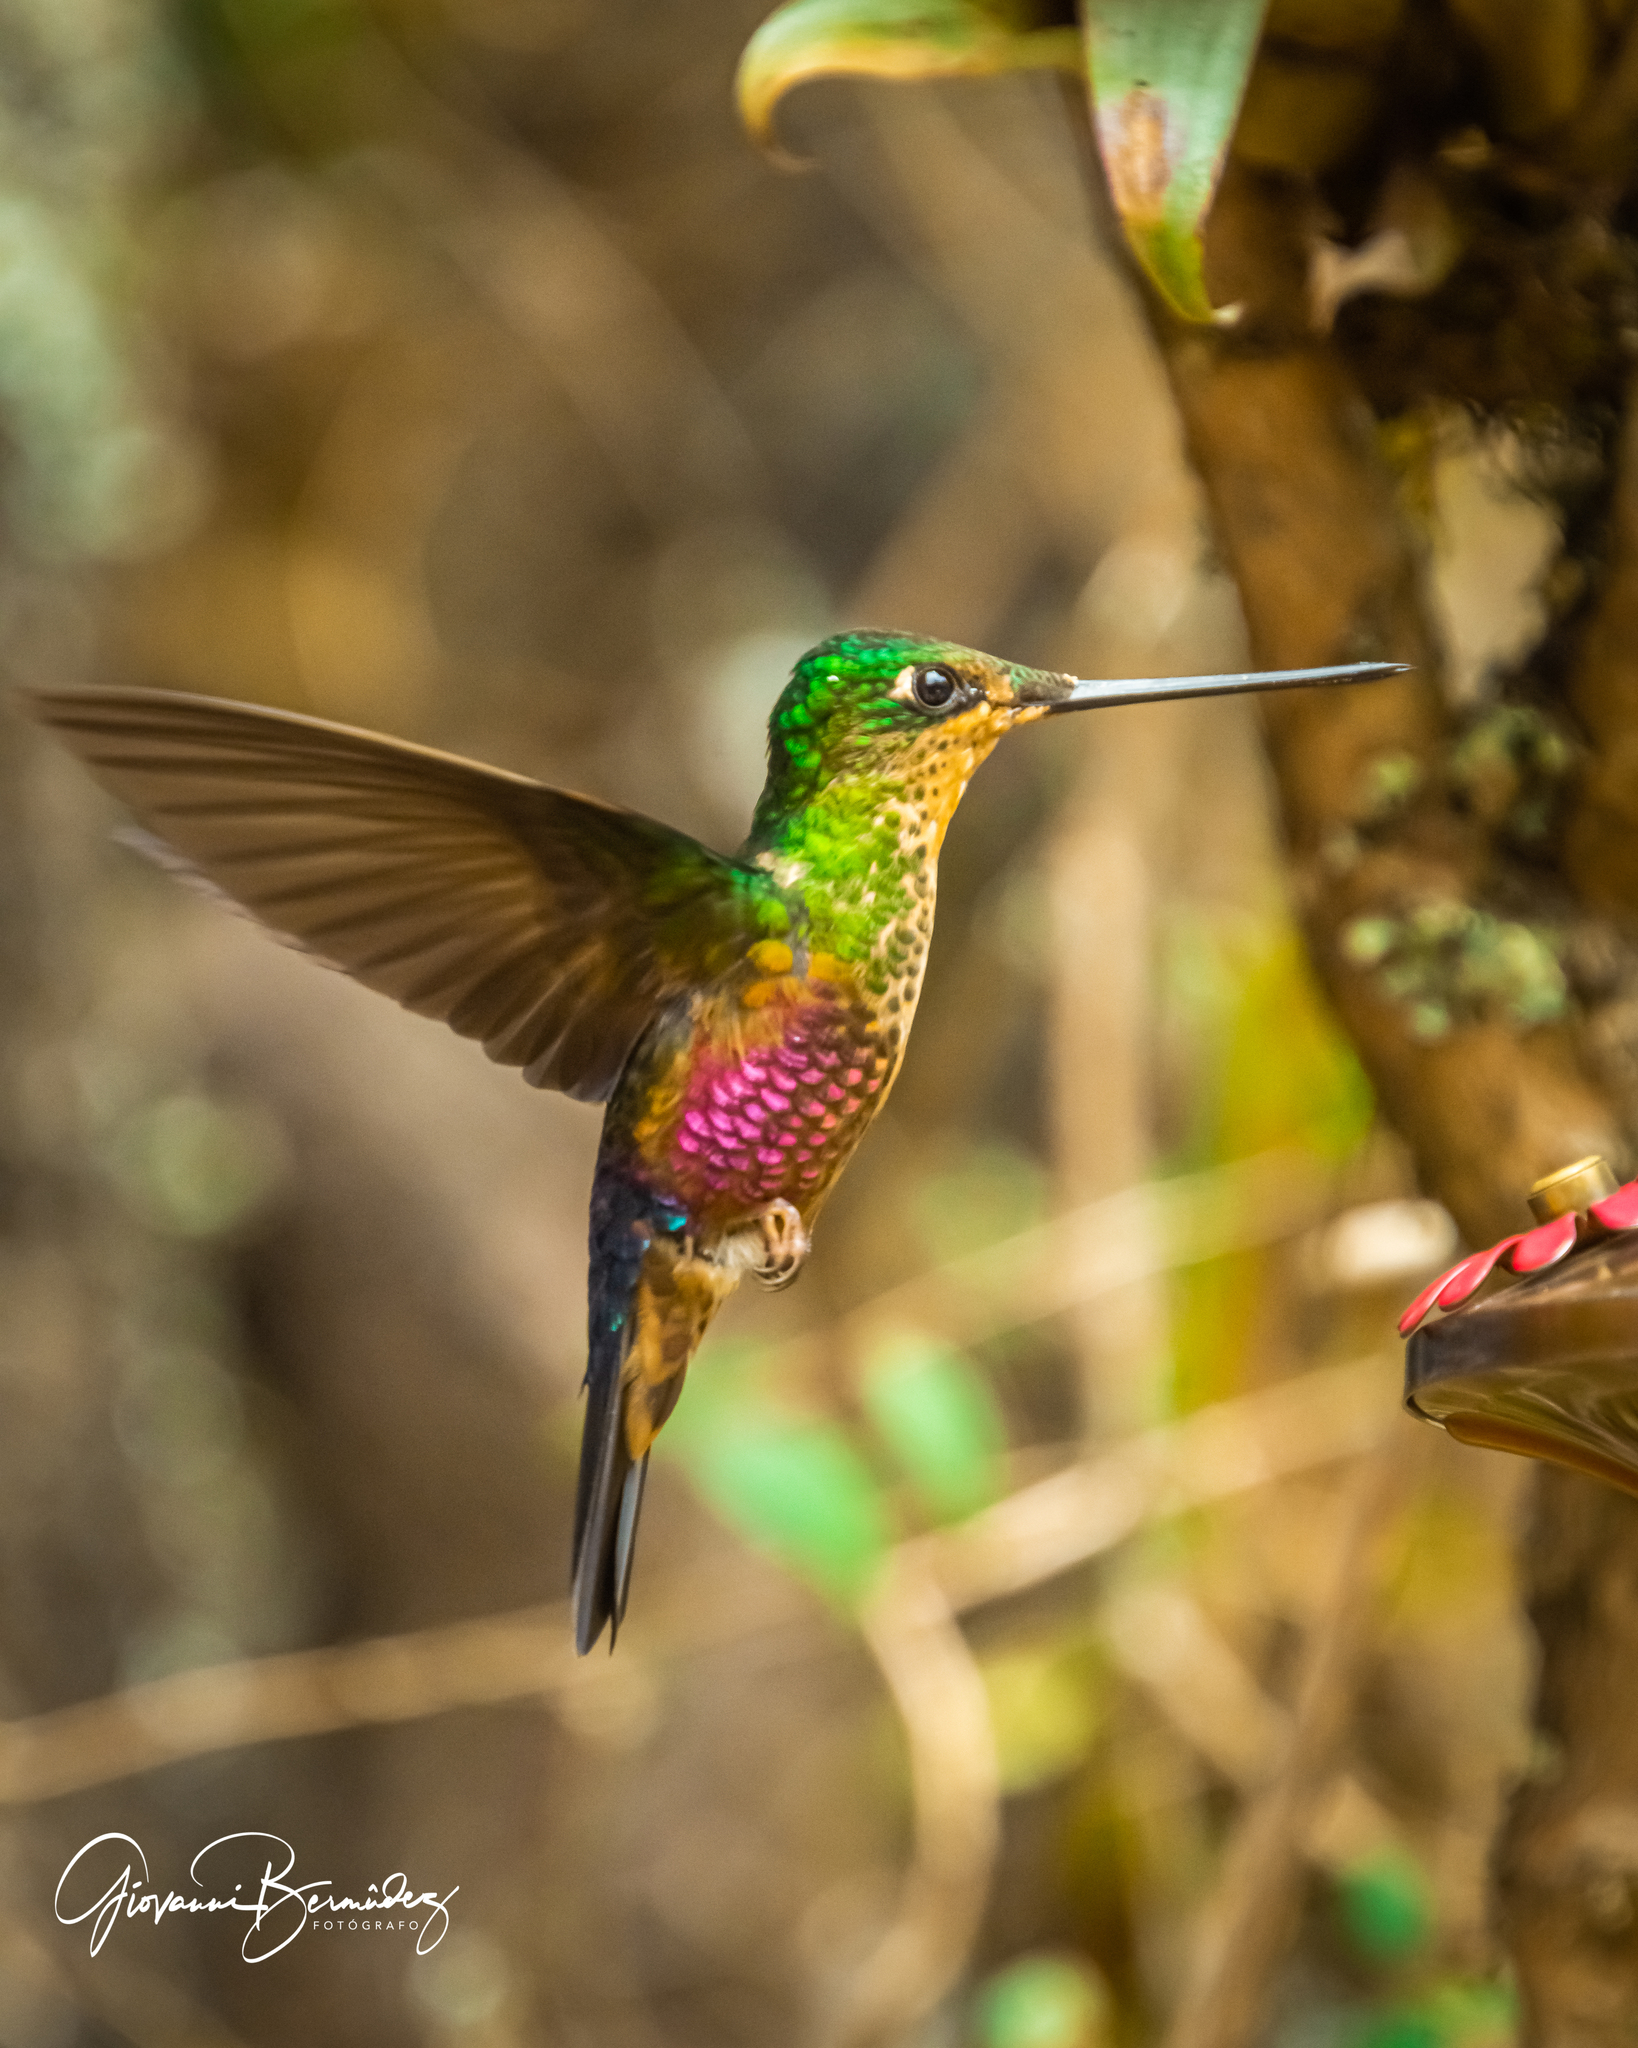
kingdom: Animalia
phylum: Chordata
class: Aves
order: Apodiformes
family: Trochilidae
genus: Coeligena
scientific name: Coeligena helianthea
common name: Blue-throated starfrontlet
